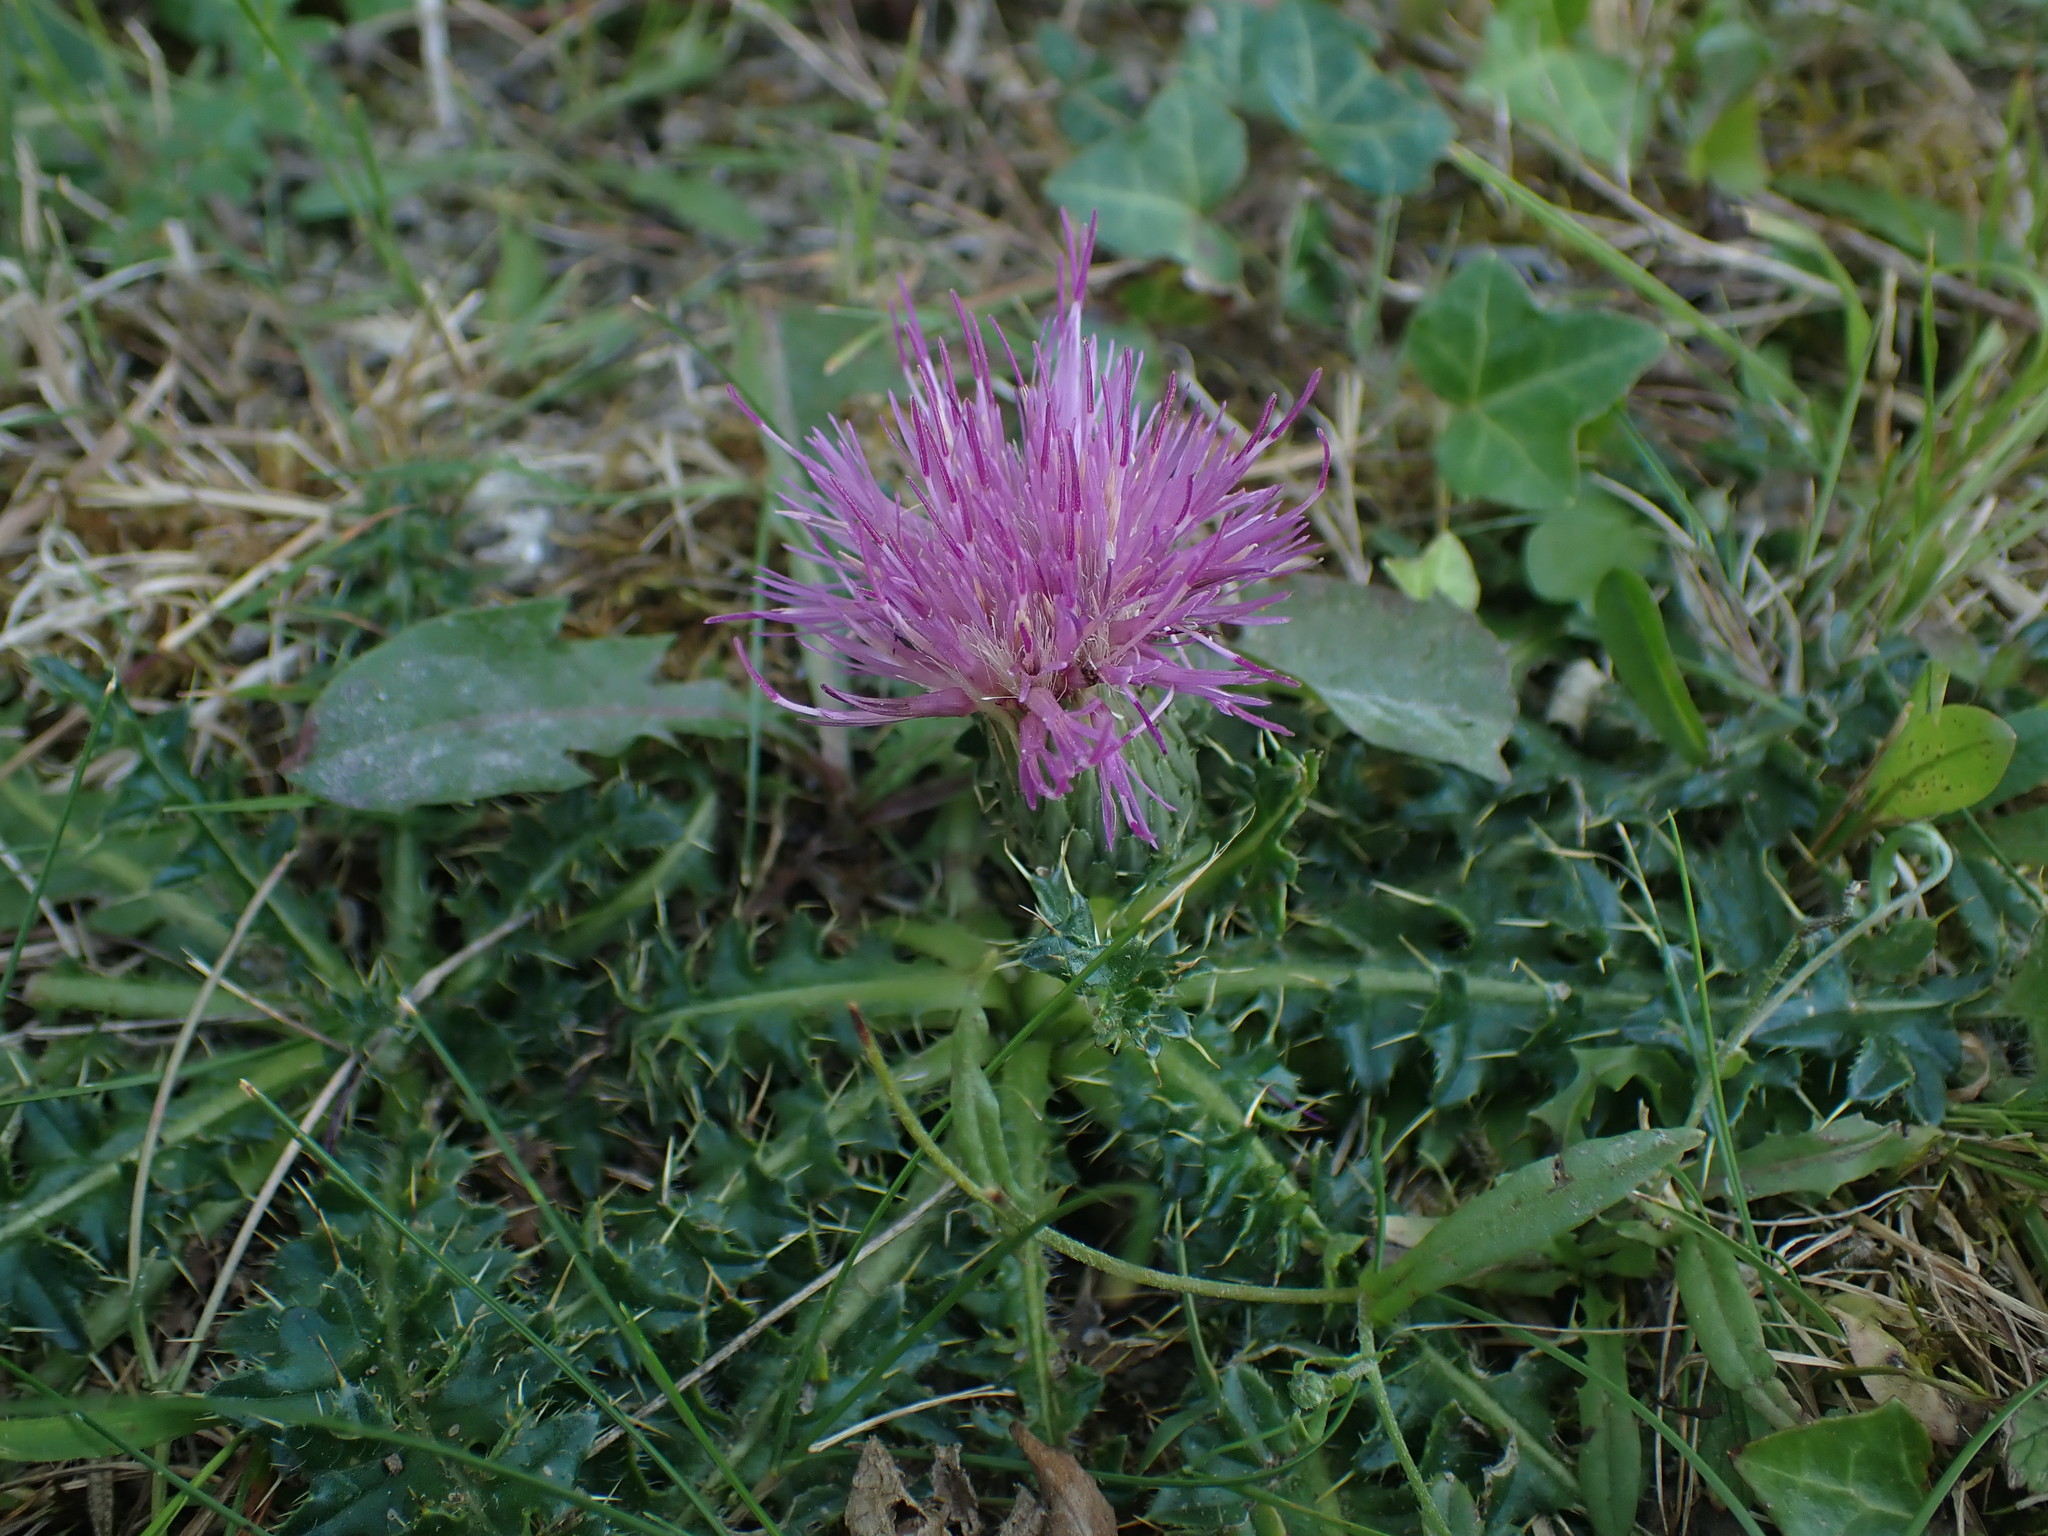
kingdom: Plantae
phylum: Tracheophyta
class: Magnoliopsida
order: Asterales
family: Asteraceae
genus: Cirsium
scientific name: Cirsium acaulon
